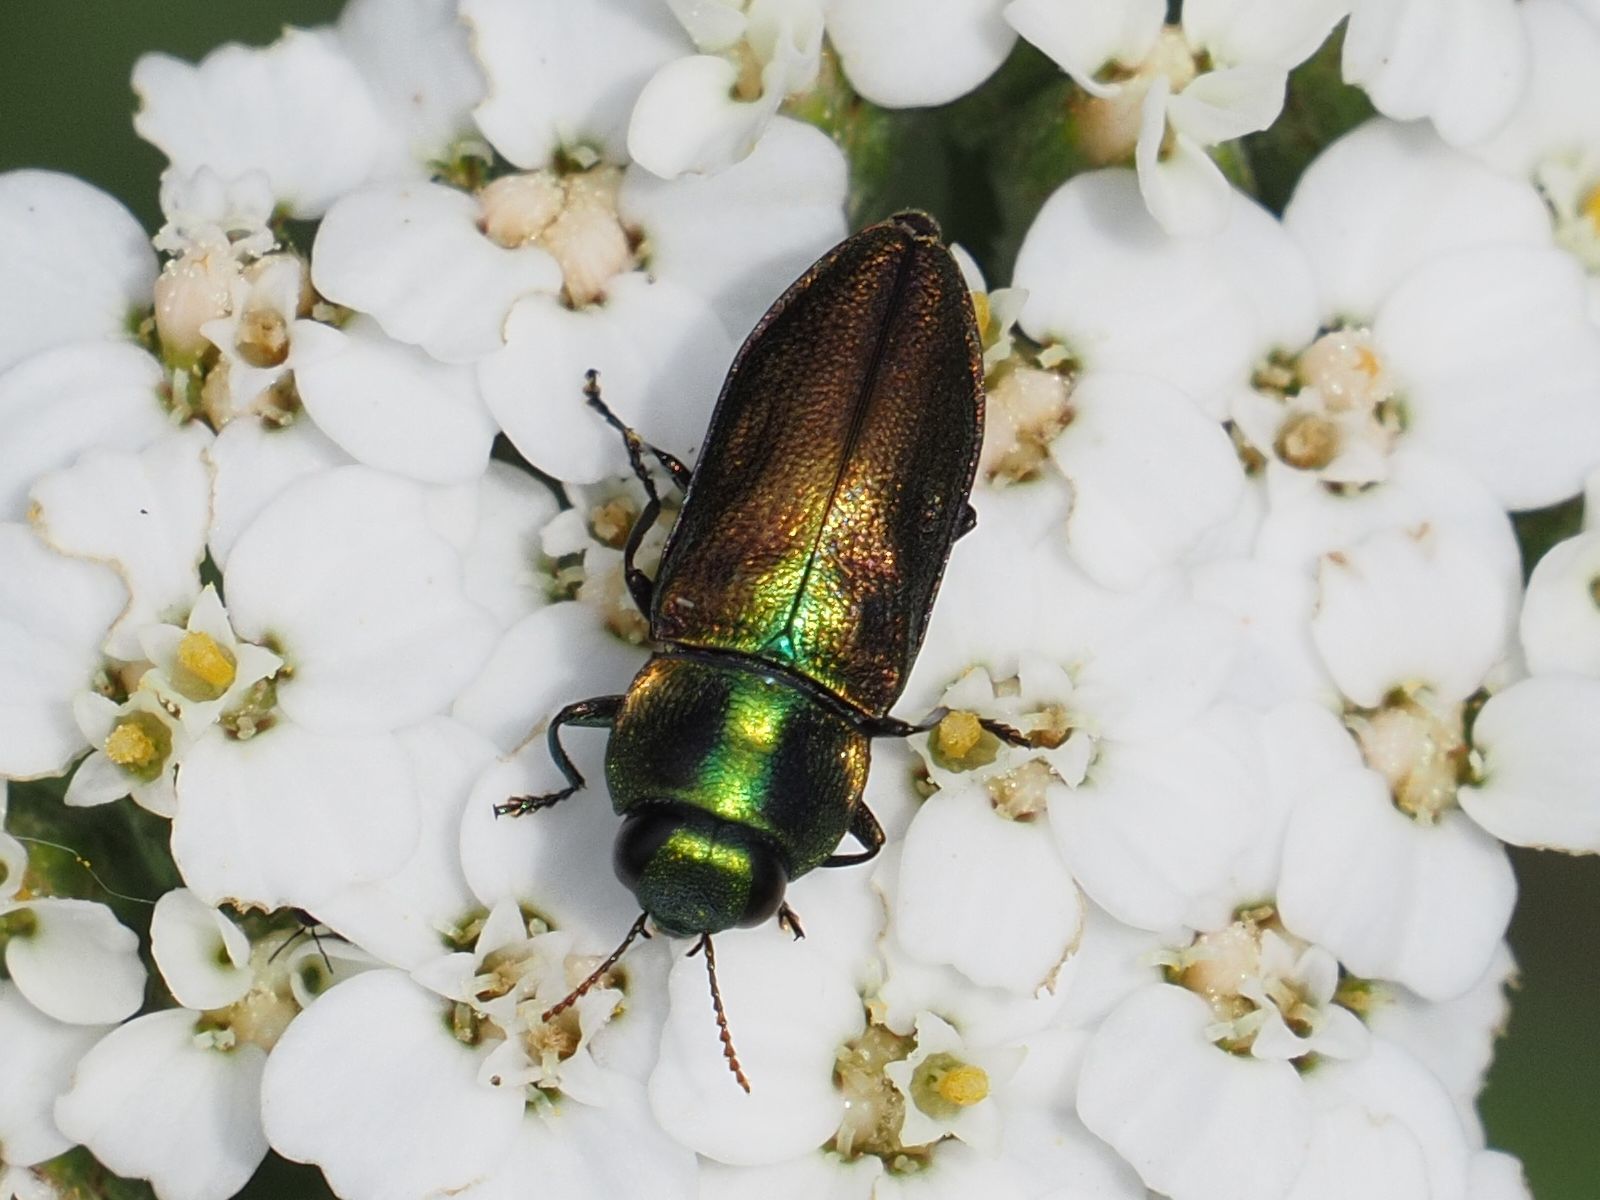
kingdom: Animalia
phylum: Arthropoda
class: Insecta
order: Coleoptera
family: Buprestidae
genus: Anthaxia
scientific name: Anthaxia podolica
